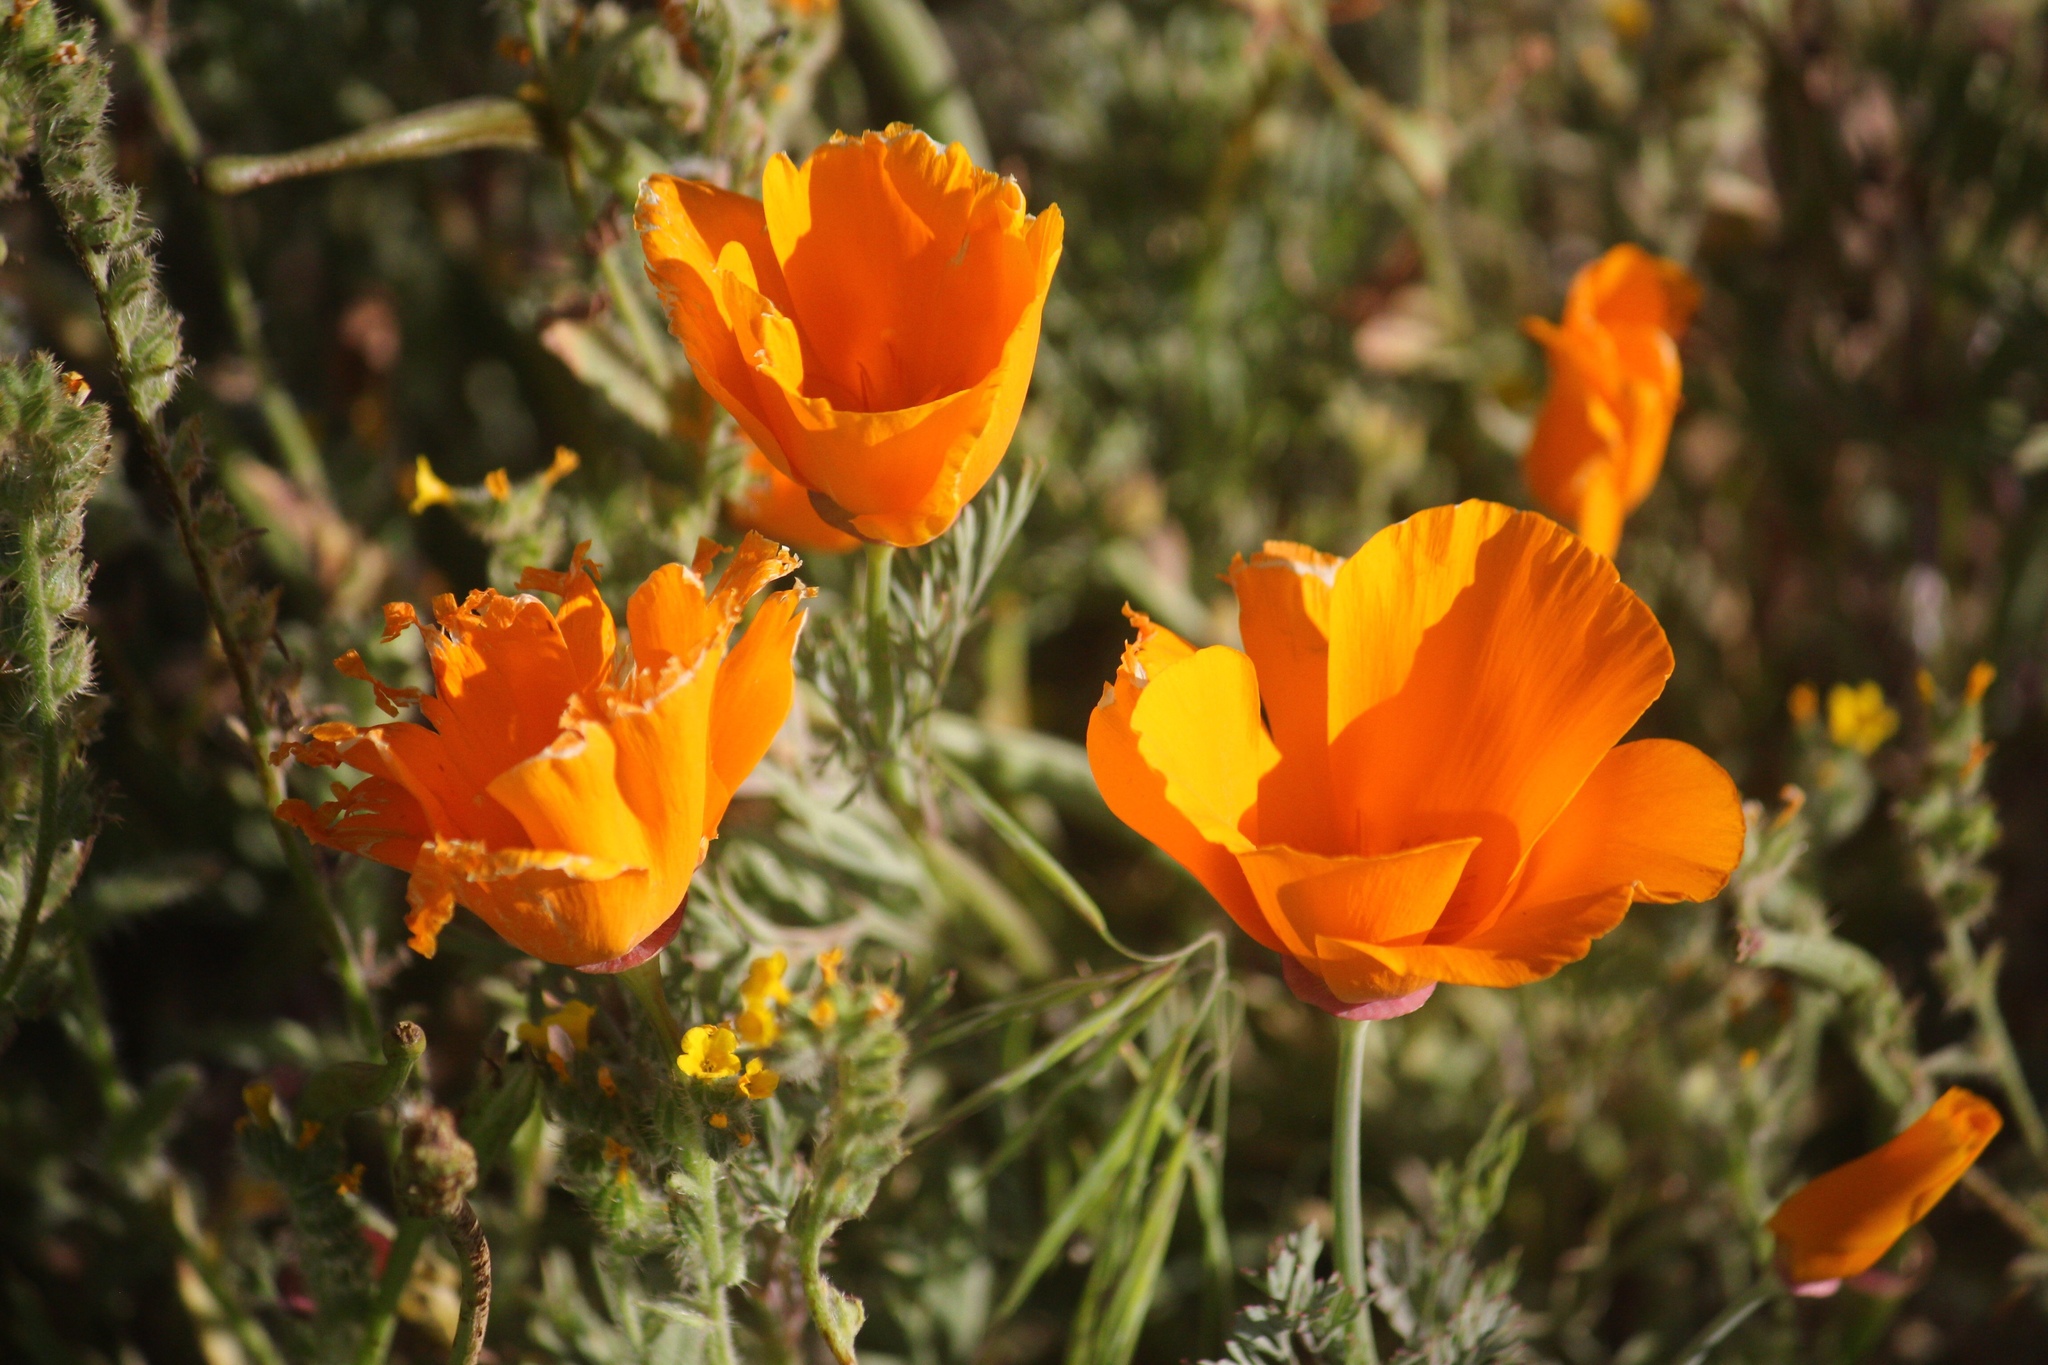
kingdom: Plantae
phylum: Tracheophyta
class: Magnoliopsida
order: Ranunculales
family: Papaveraceae
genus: Eschscholzia
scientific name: Eschscholzia californica
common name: California poppy
